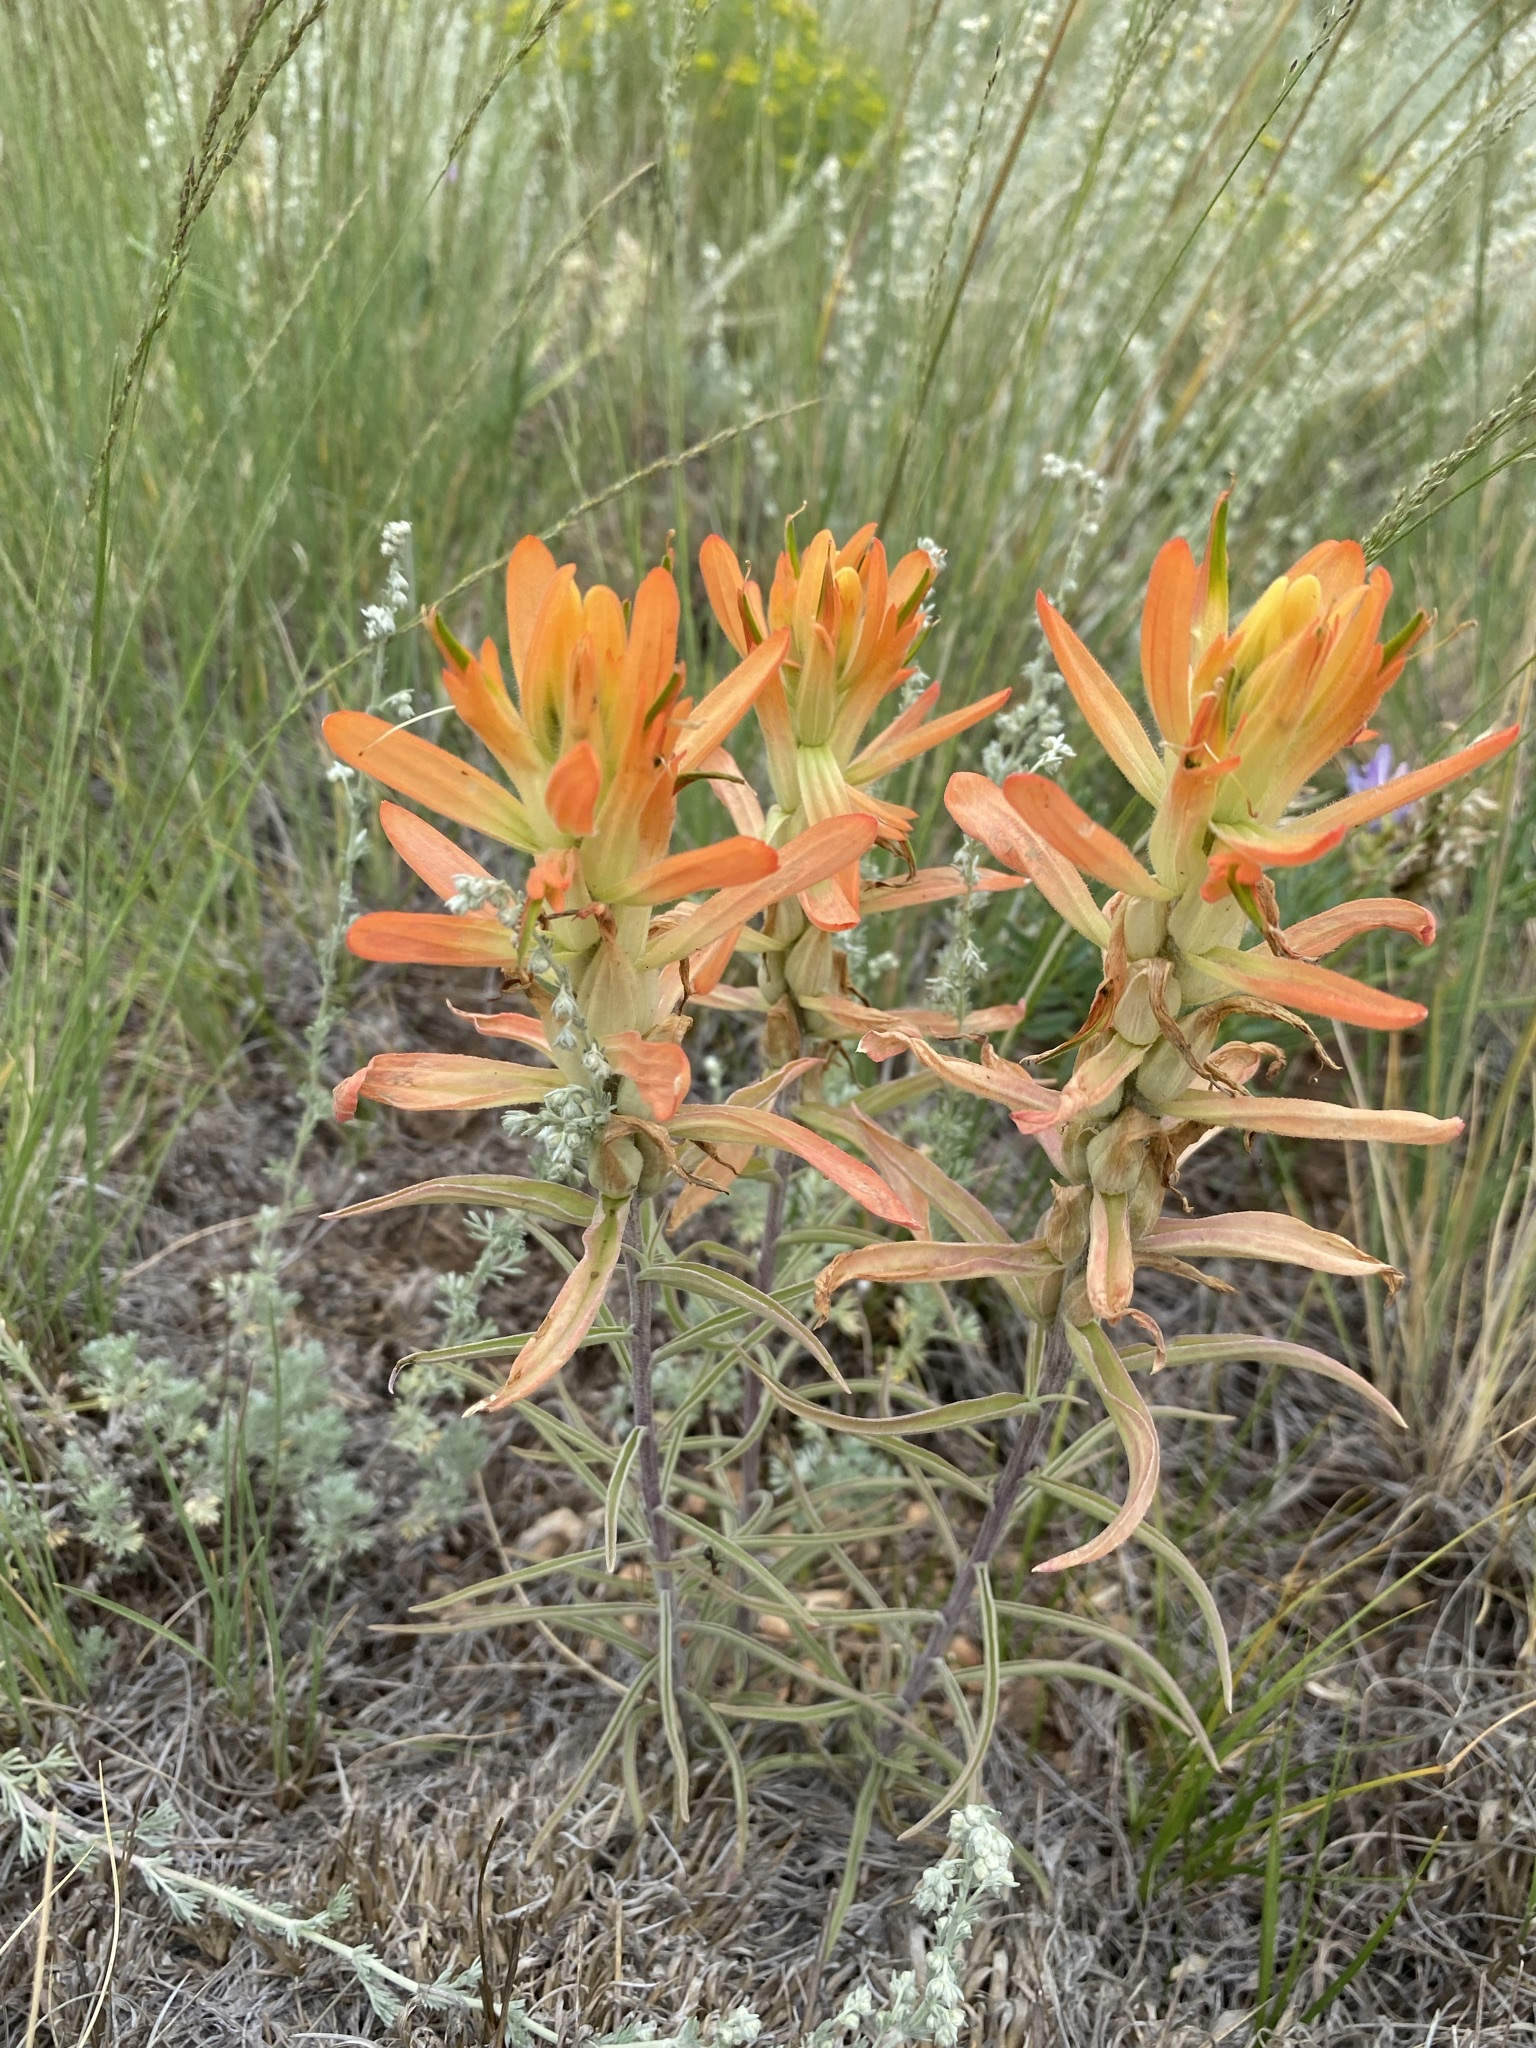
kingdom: Plantae
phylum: Tracheophyta
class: Magnoliopsida
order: Lamiales
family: Orobanchaceae
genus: Castilleja
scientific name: Castilleja integra
